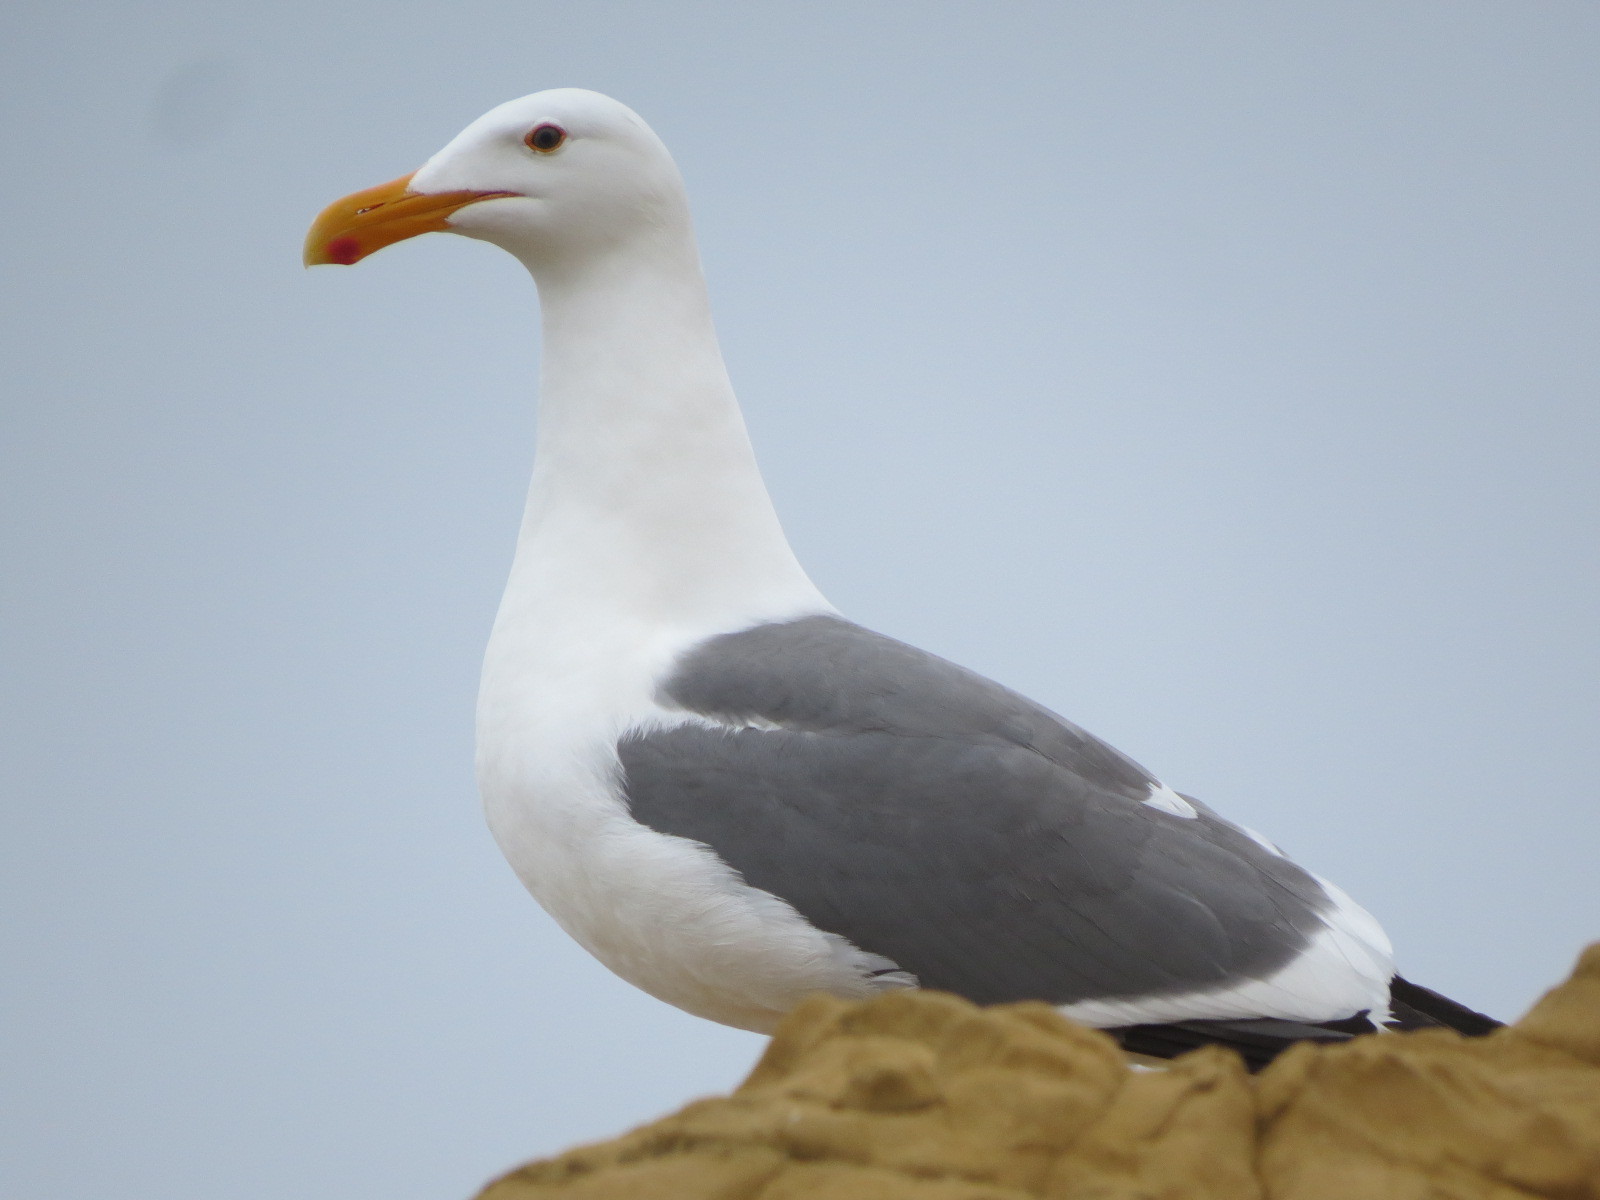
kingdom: Animalia
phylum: Chordata
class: Aves
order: Charadriiformes
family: Laridae
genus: Larus
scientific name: Larus occidentalis
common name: Western gull
